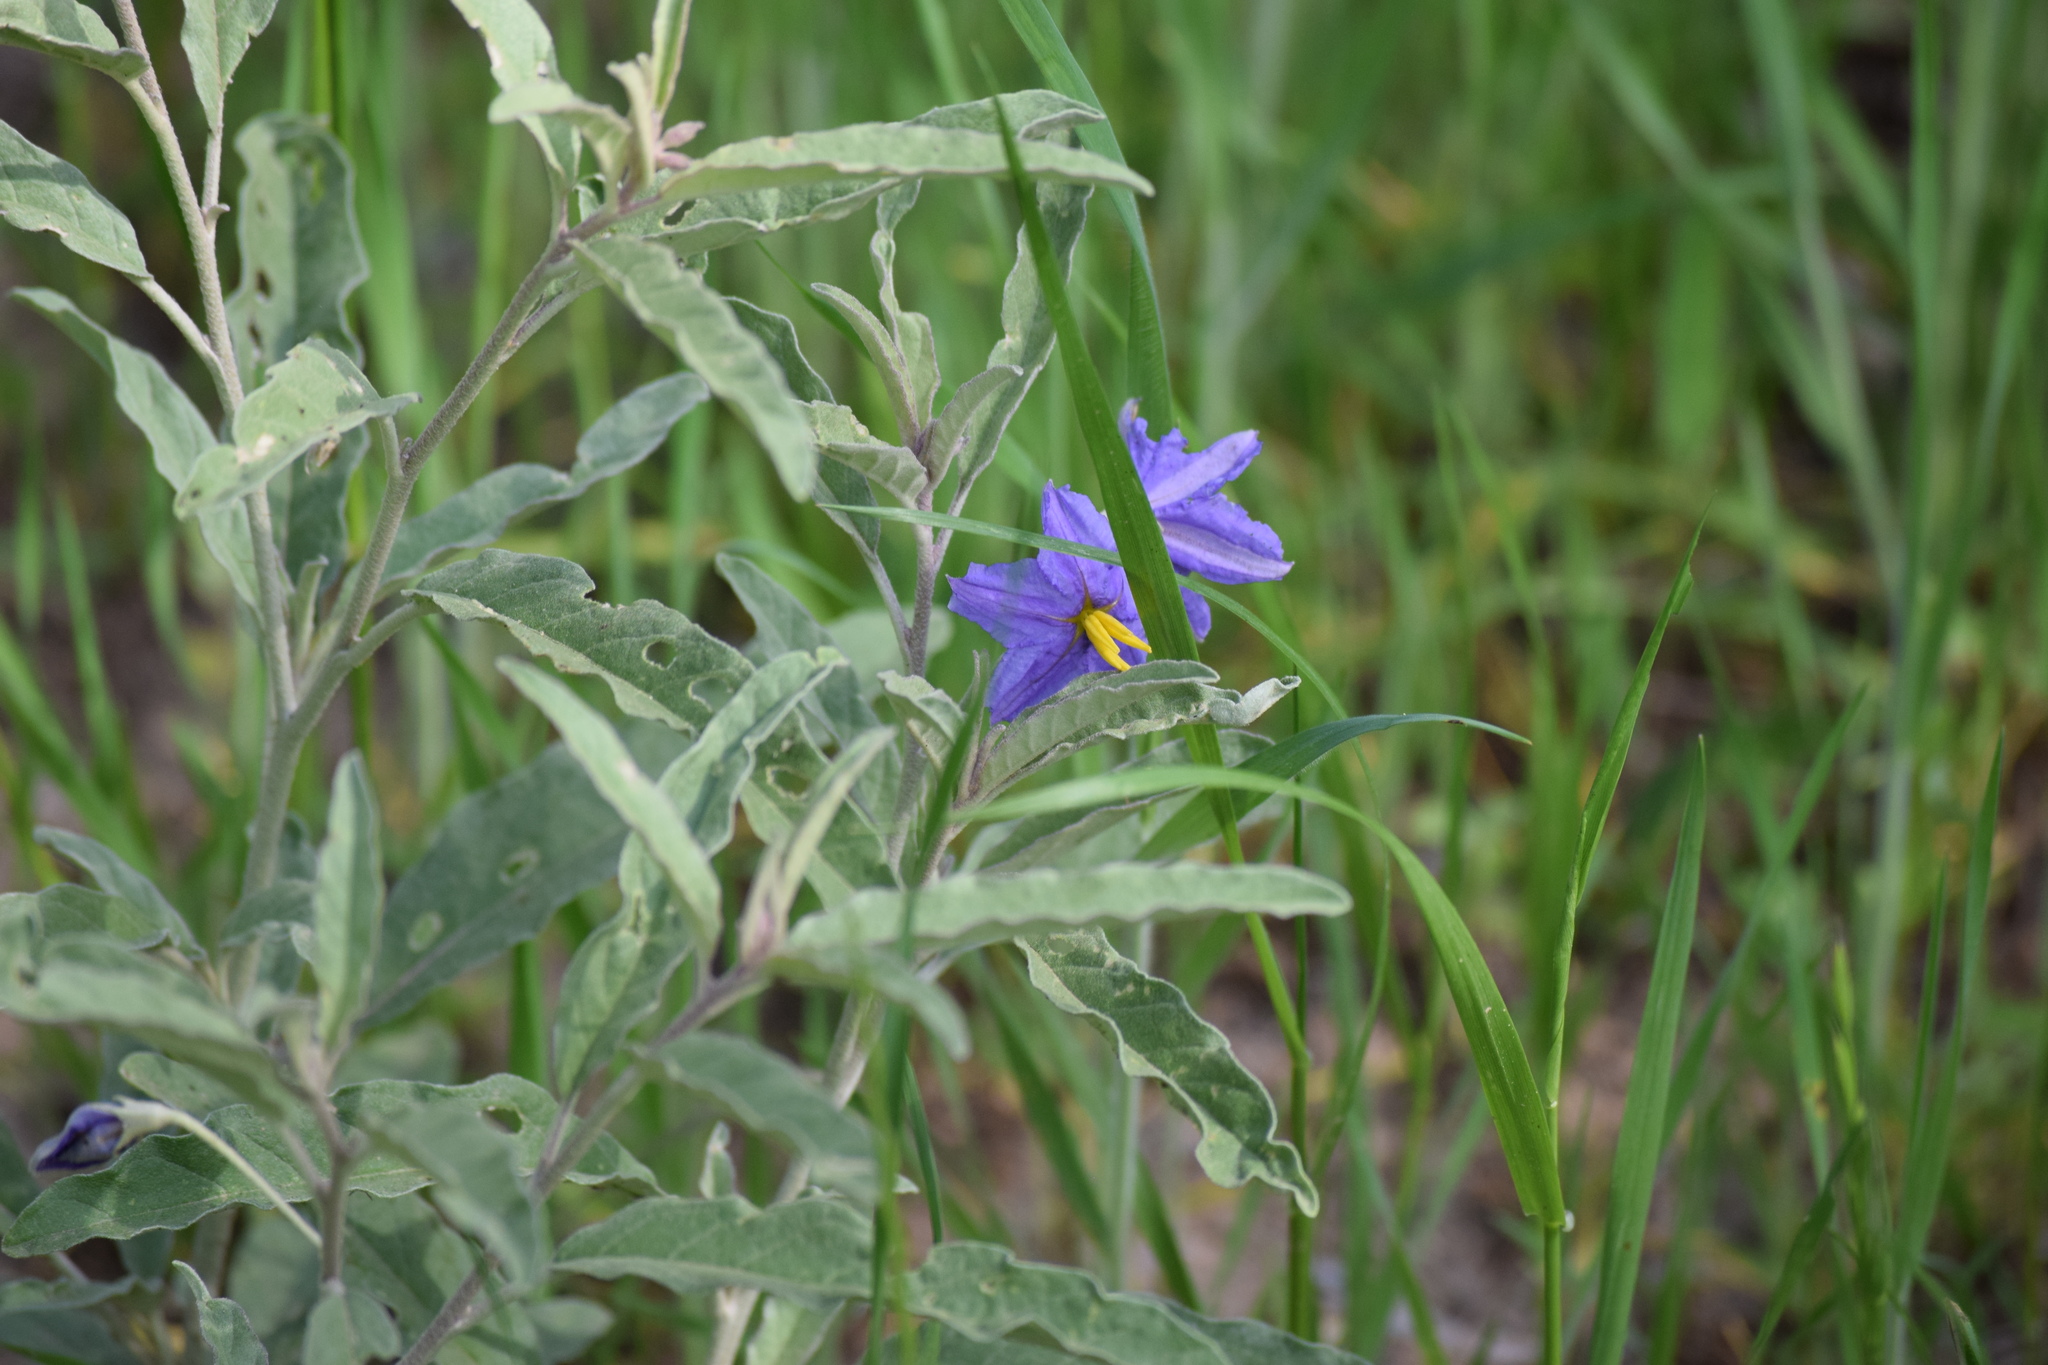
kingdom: Plantae
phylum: Tracheophyta
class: Magnoliopsida
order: Solanales
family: Solanaceae
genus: Solanum
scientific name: Solanum elaeagnifolium
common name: Silverleaf nightshade
